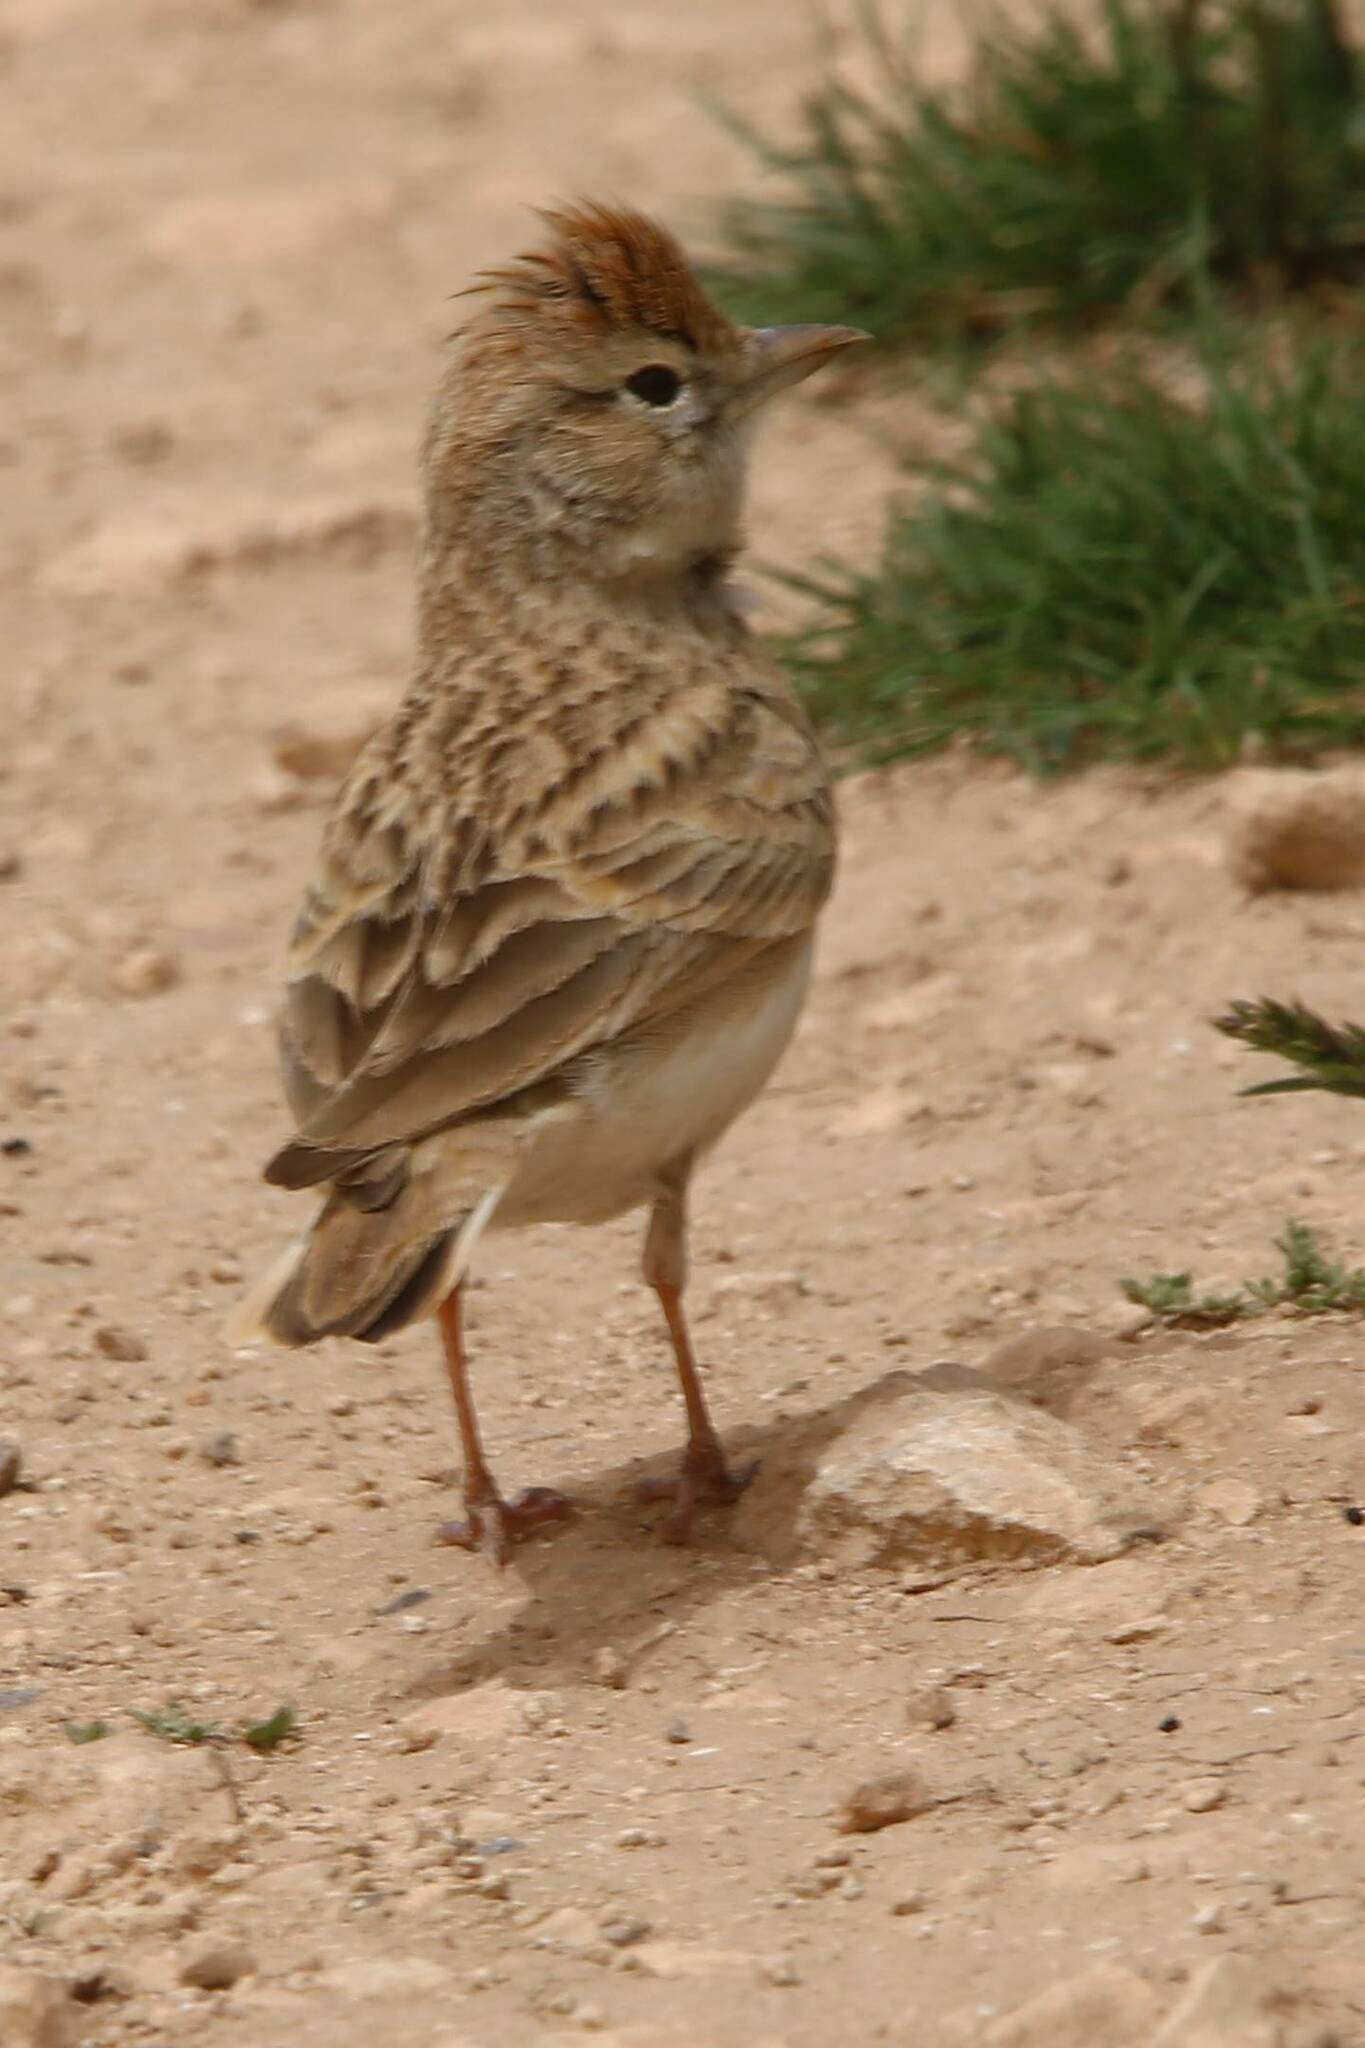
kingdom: Animalia
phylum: Chordata
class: Aves
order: Passeriformes
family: Alaudidae
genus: Calandrella
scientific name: Calandrella brachydactyla
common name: Greater short-toed lark
